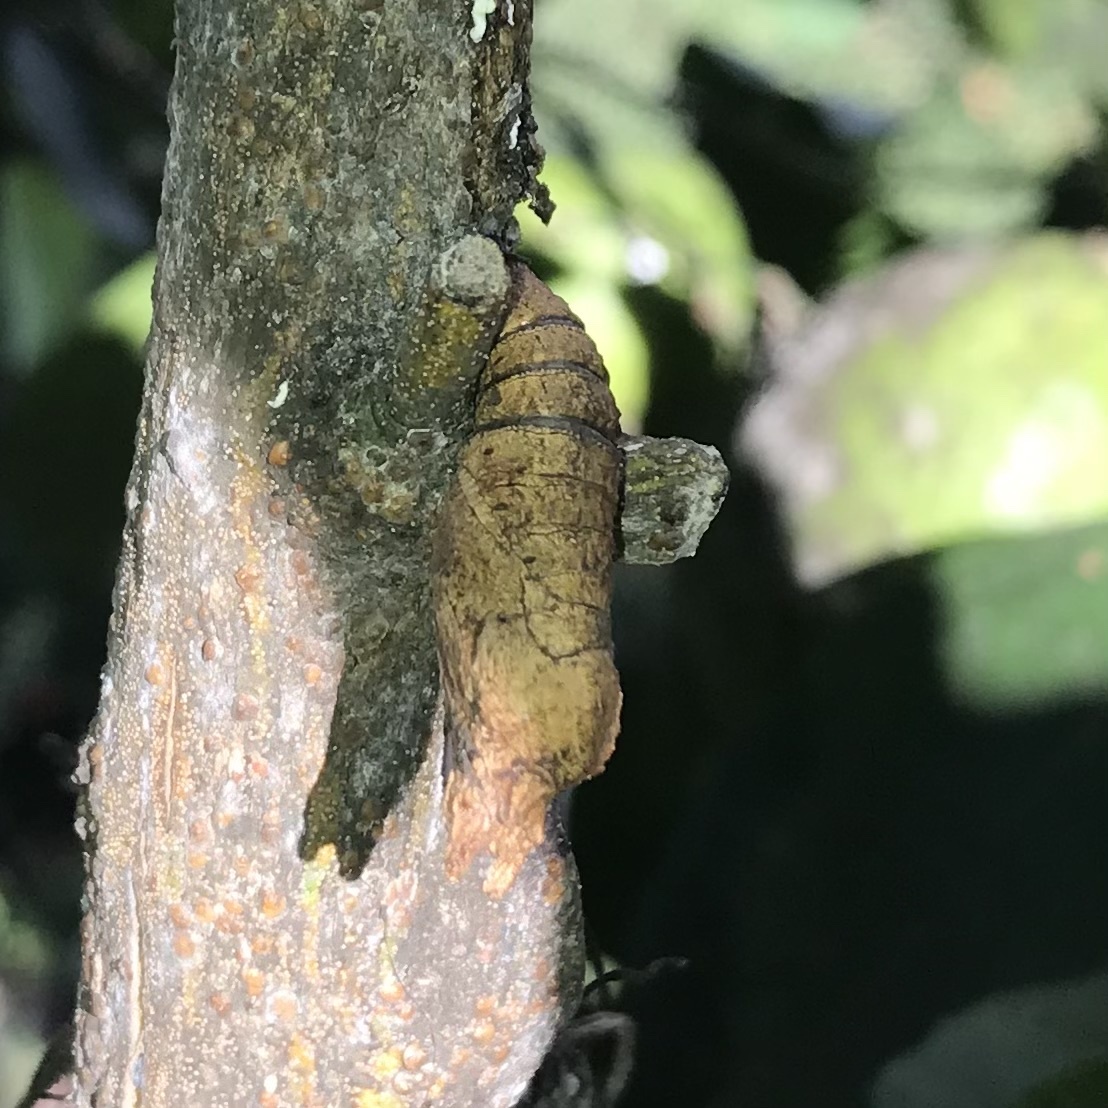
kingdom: Animalia
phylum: Arthropoda
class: Insecta
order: Lepidoptera
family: Papilionidae
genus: Papilio
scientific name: Papilio anactus
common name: Dingy swallowtail
